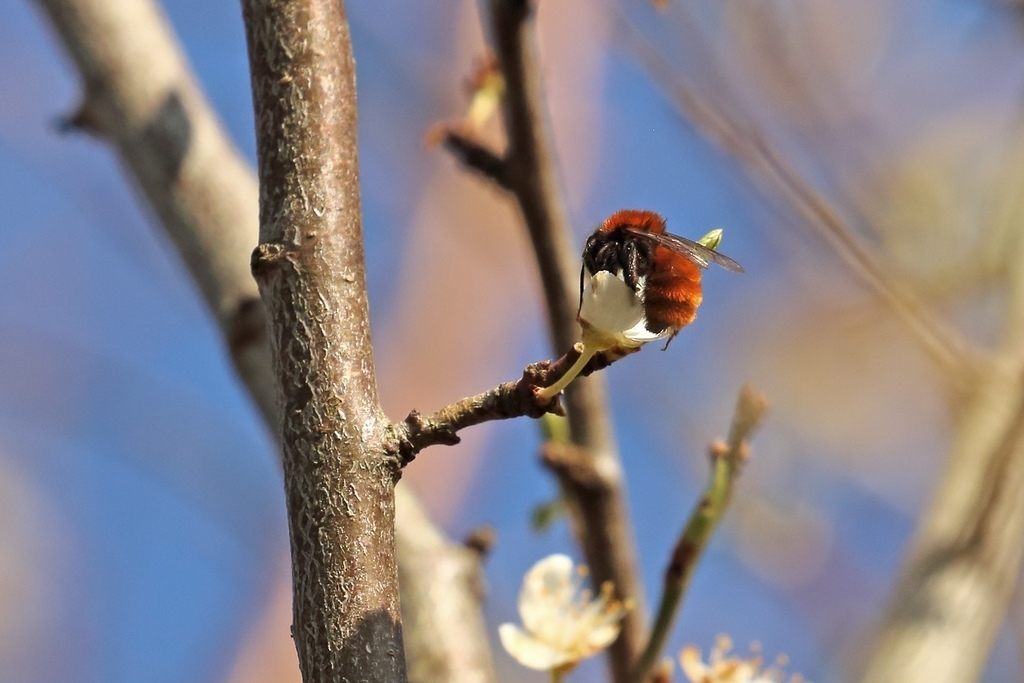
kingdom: Animalia
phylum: Arthropoda
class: Insecta
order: Hymenoptera
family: Andrenidae
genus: Andrena
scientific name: Andrena fulva
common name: Tawny mining bee
